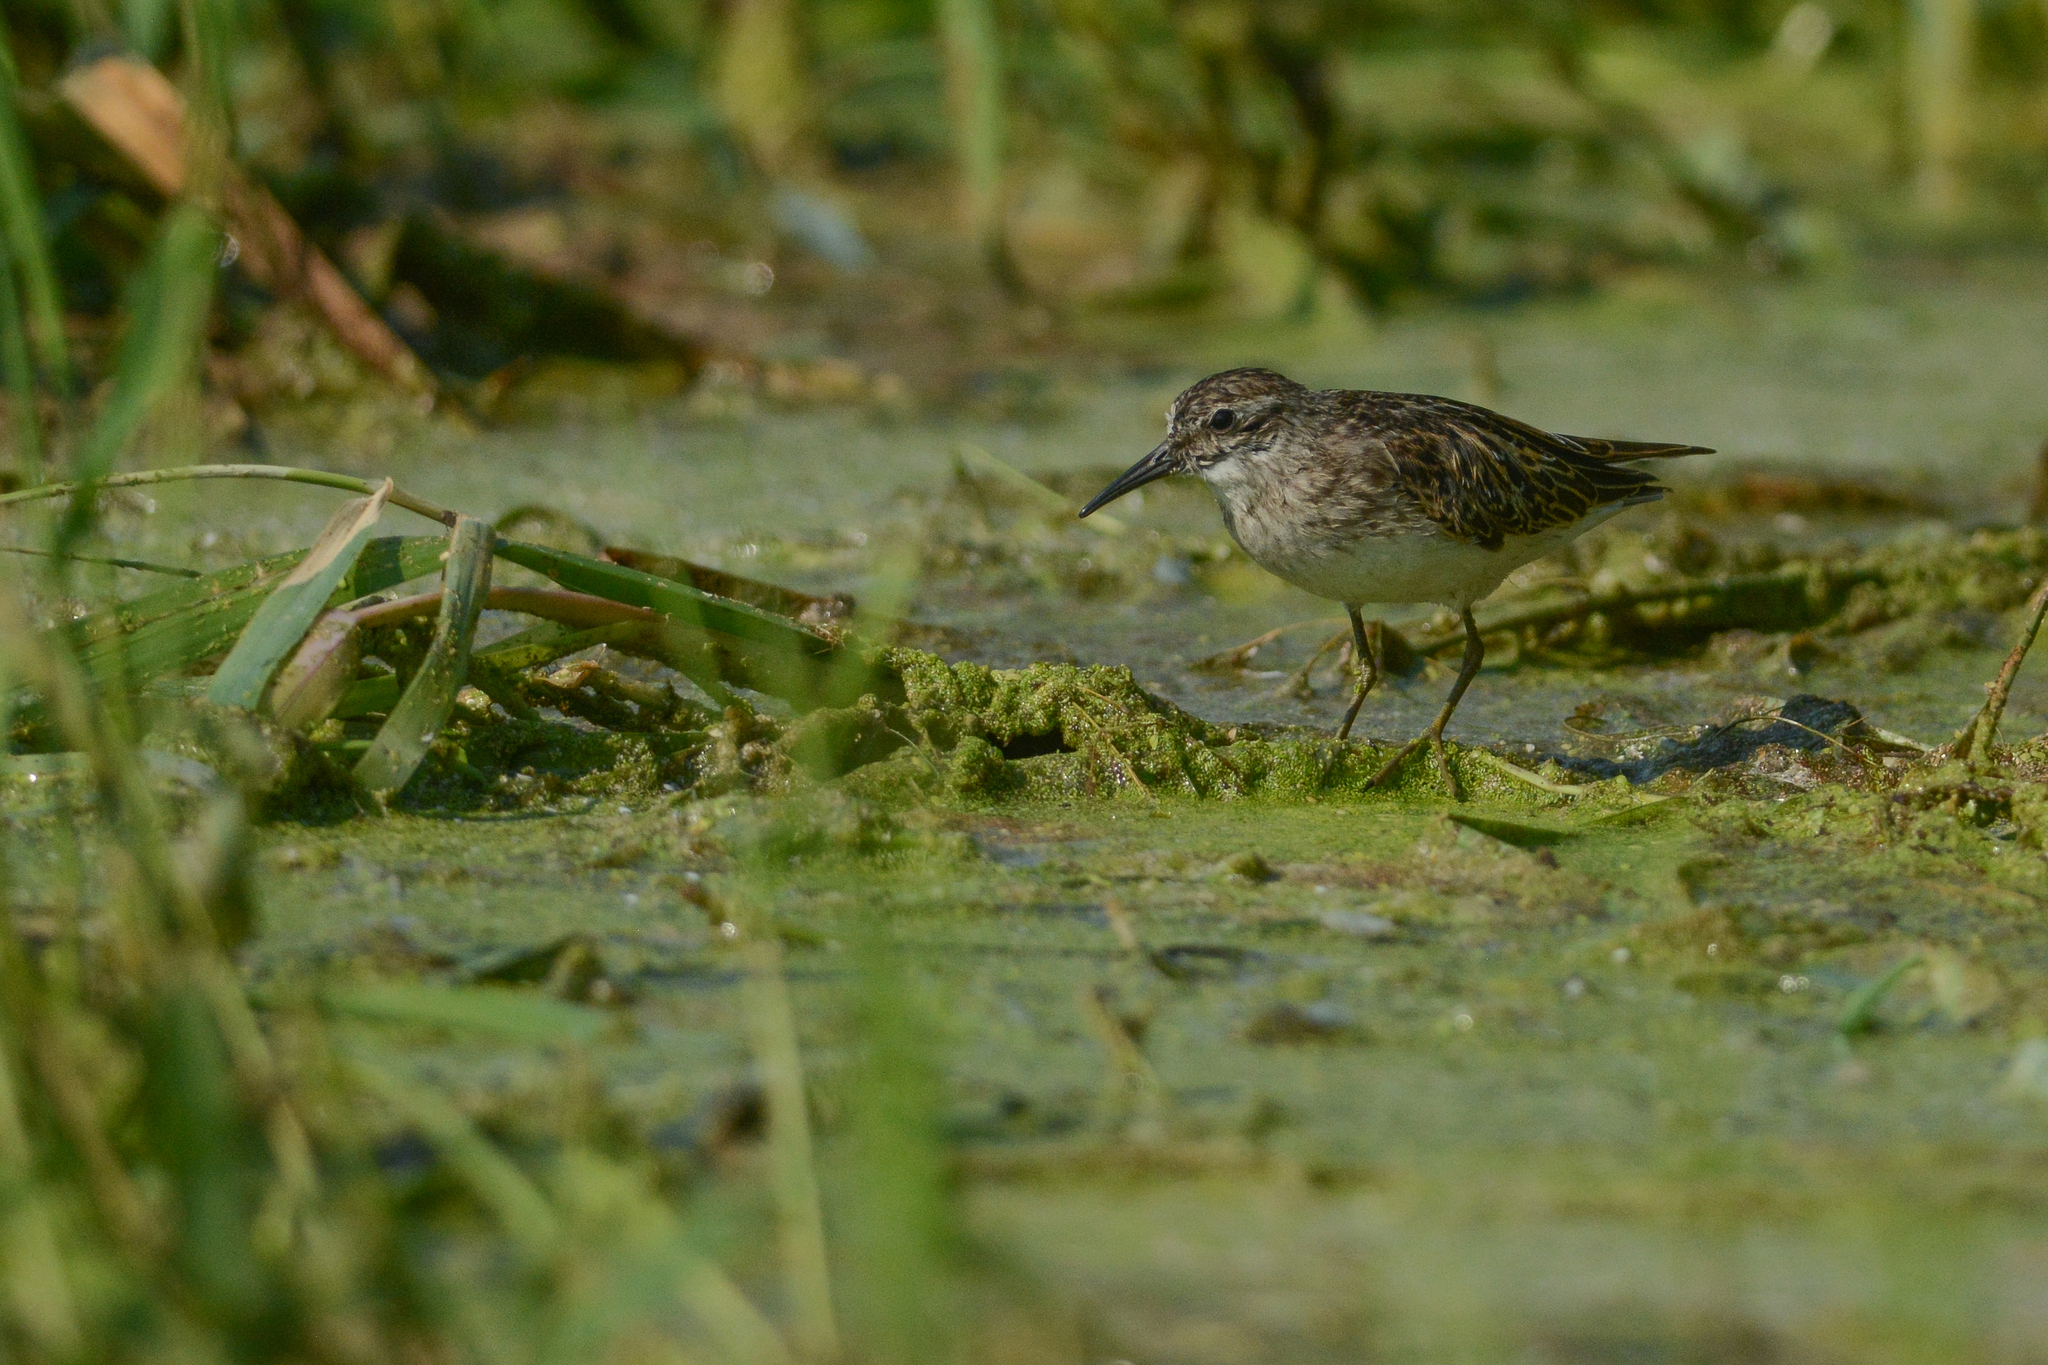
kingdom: Animalia
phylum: Chordata
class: Aves
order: Charadriiformes
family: Scolopacidae
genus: Calidris
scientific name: Calidris minutilla
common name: Least sandpiper
